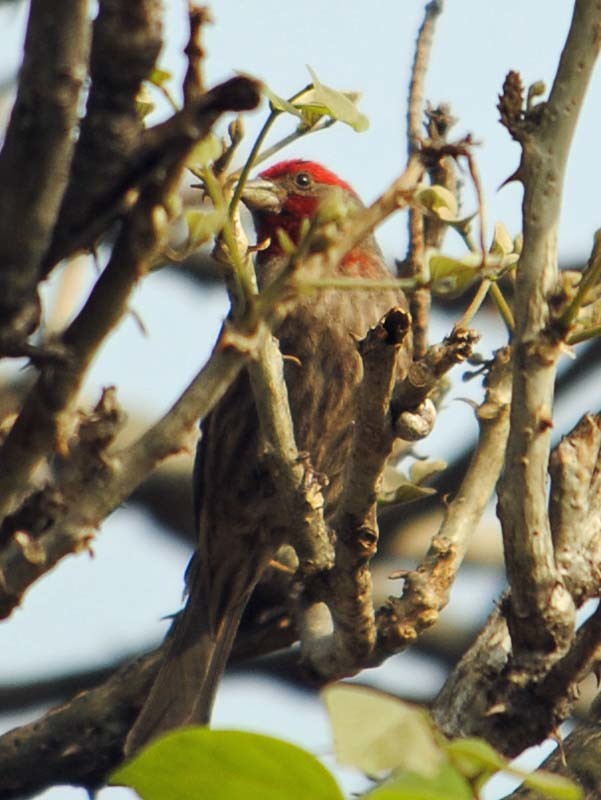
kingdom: Animalia
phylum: Chordata
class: Aves
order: Passeriformes
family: Fringillidae
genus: Haemorhous
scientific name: Haemorhous mexicanus
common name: House finch
